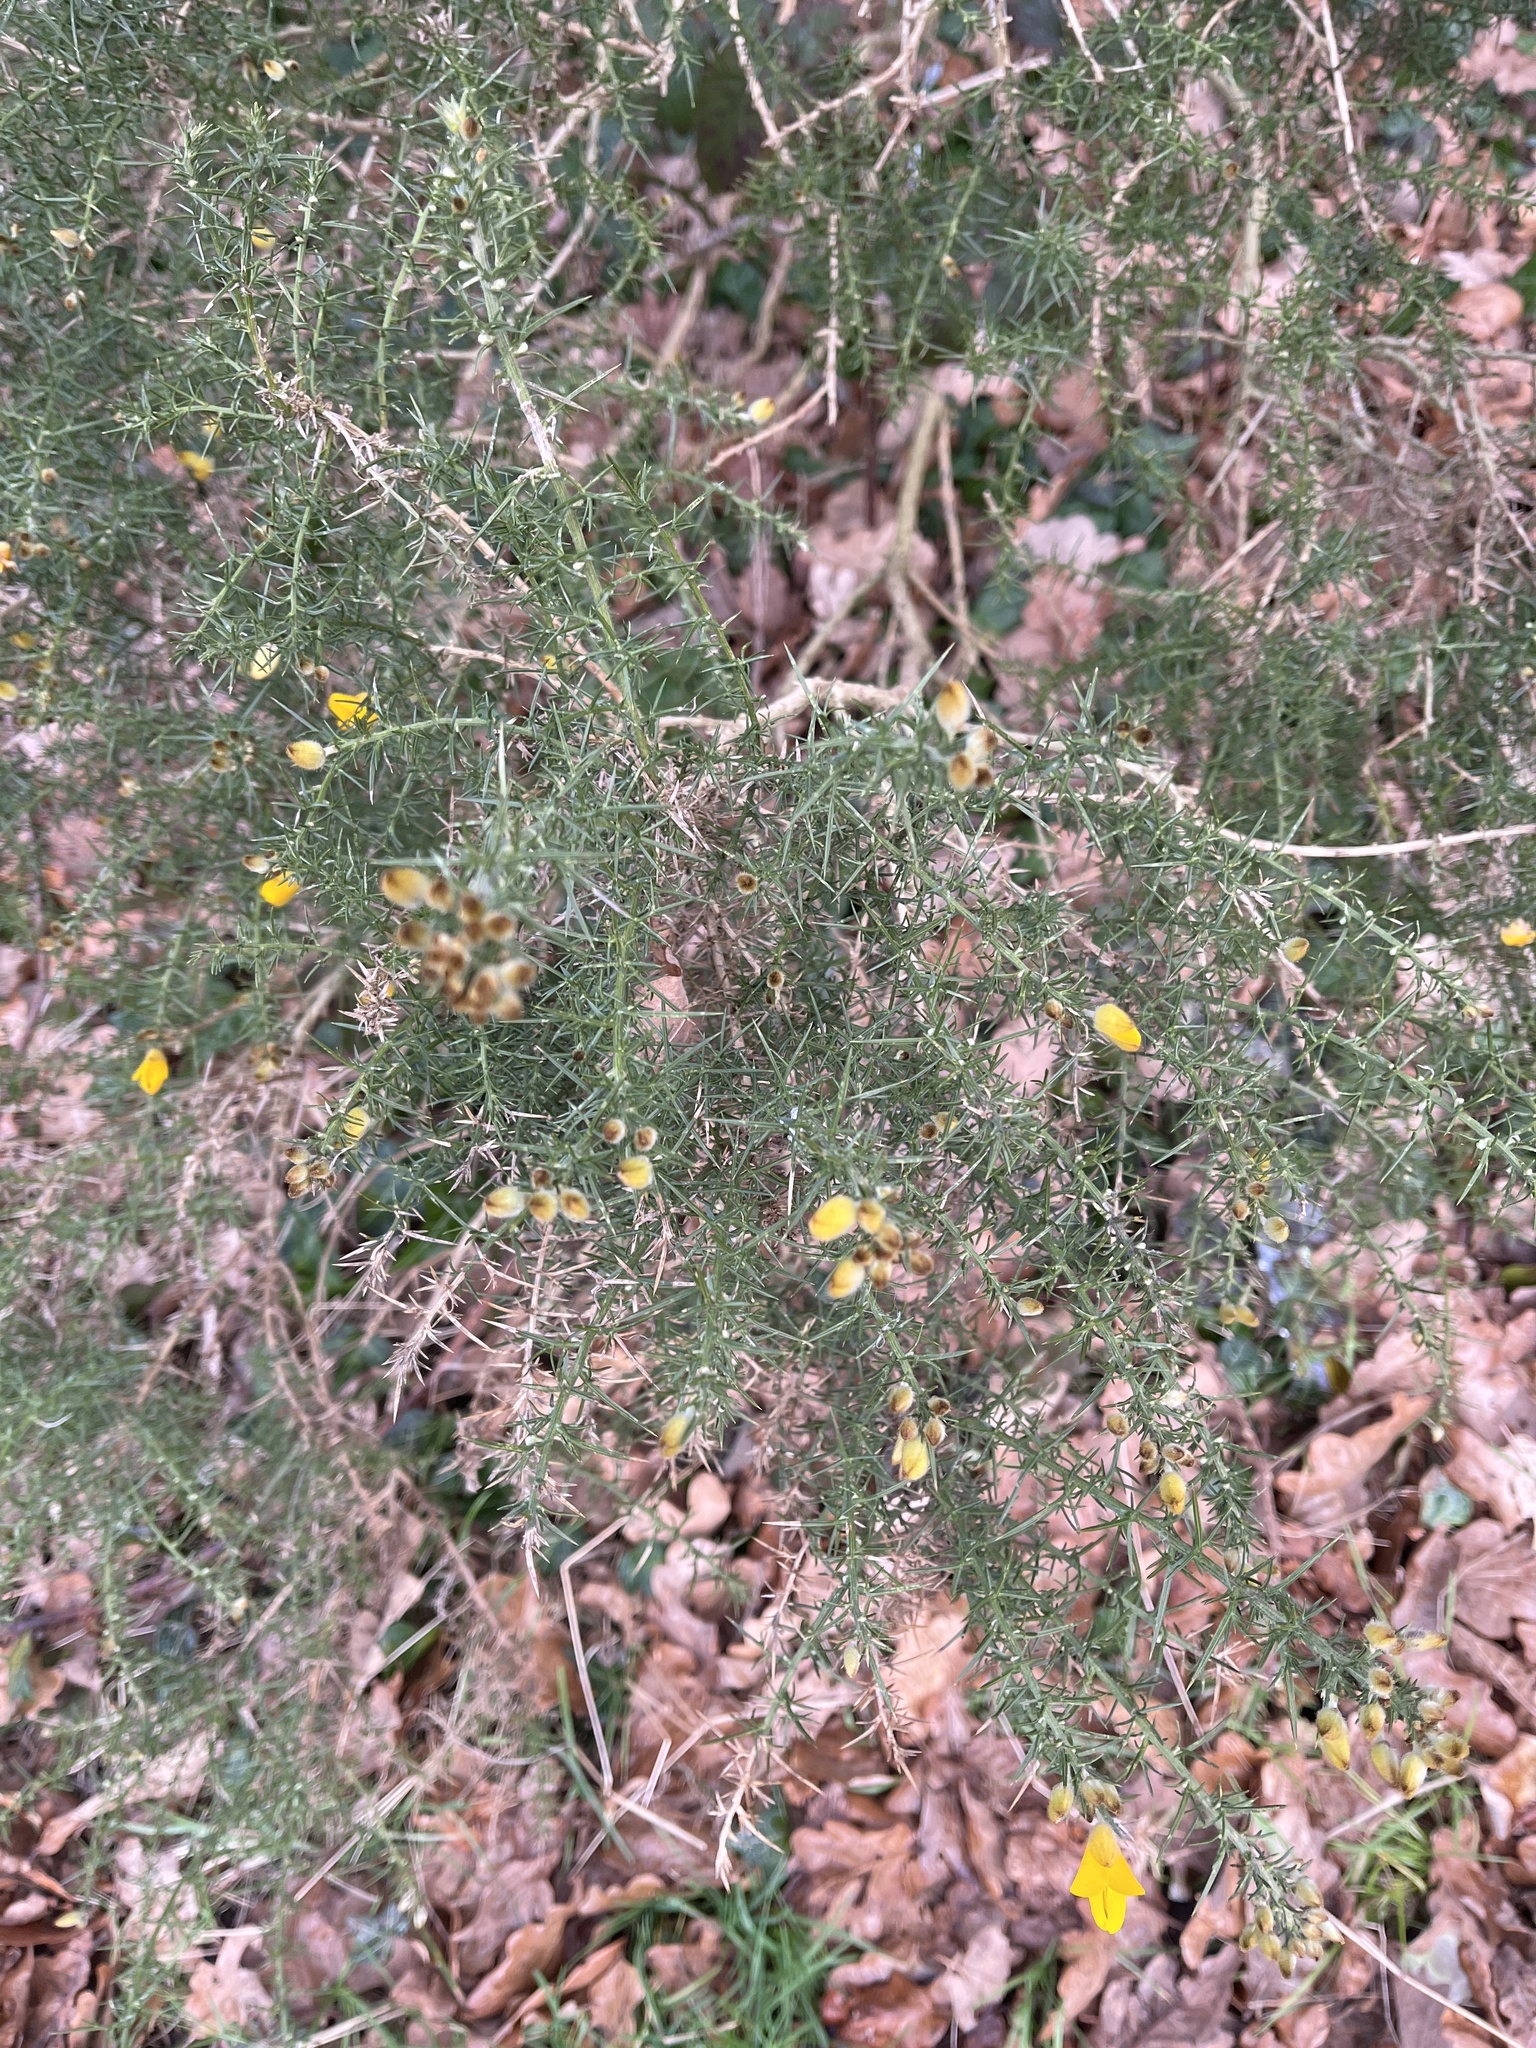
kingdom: Plantae
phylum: Tracheophyta
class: Magnoliopsida
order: Fabales
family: Fabaceae
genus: Ulex
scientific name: Ulex europaeus
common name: Common gorse
